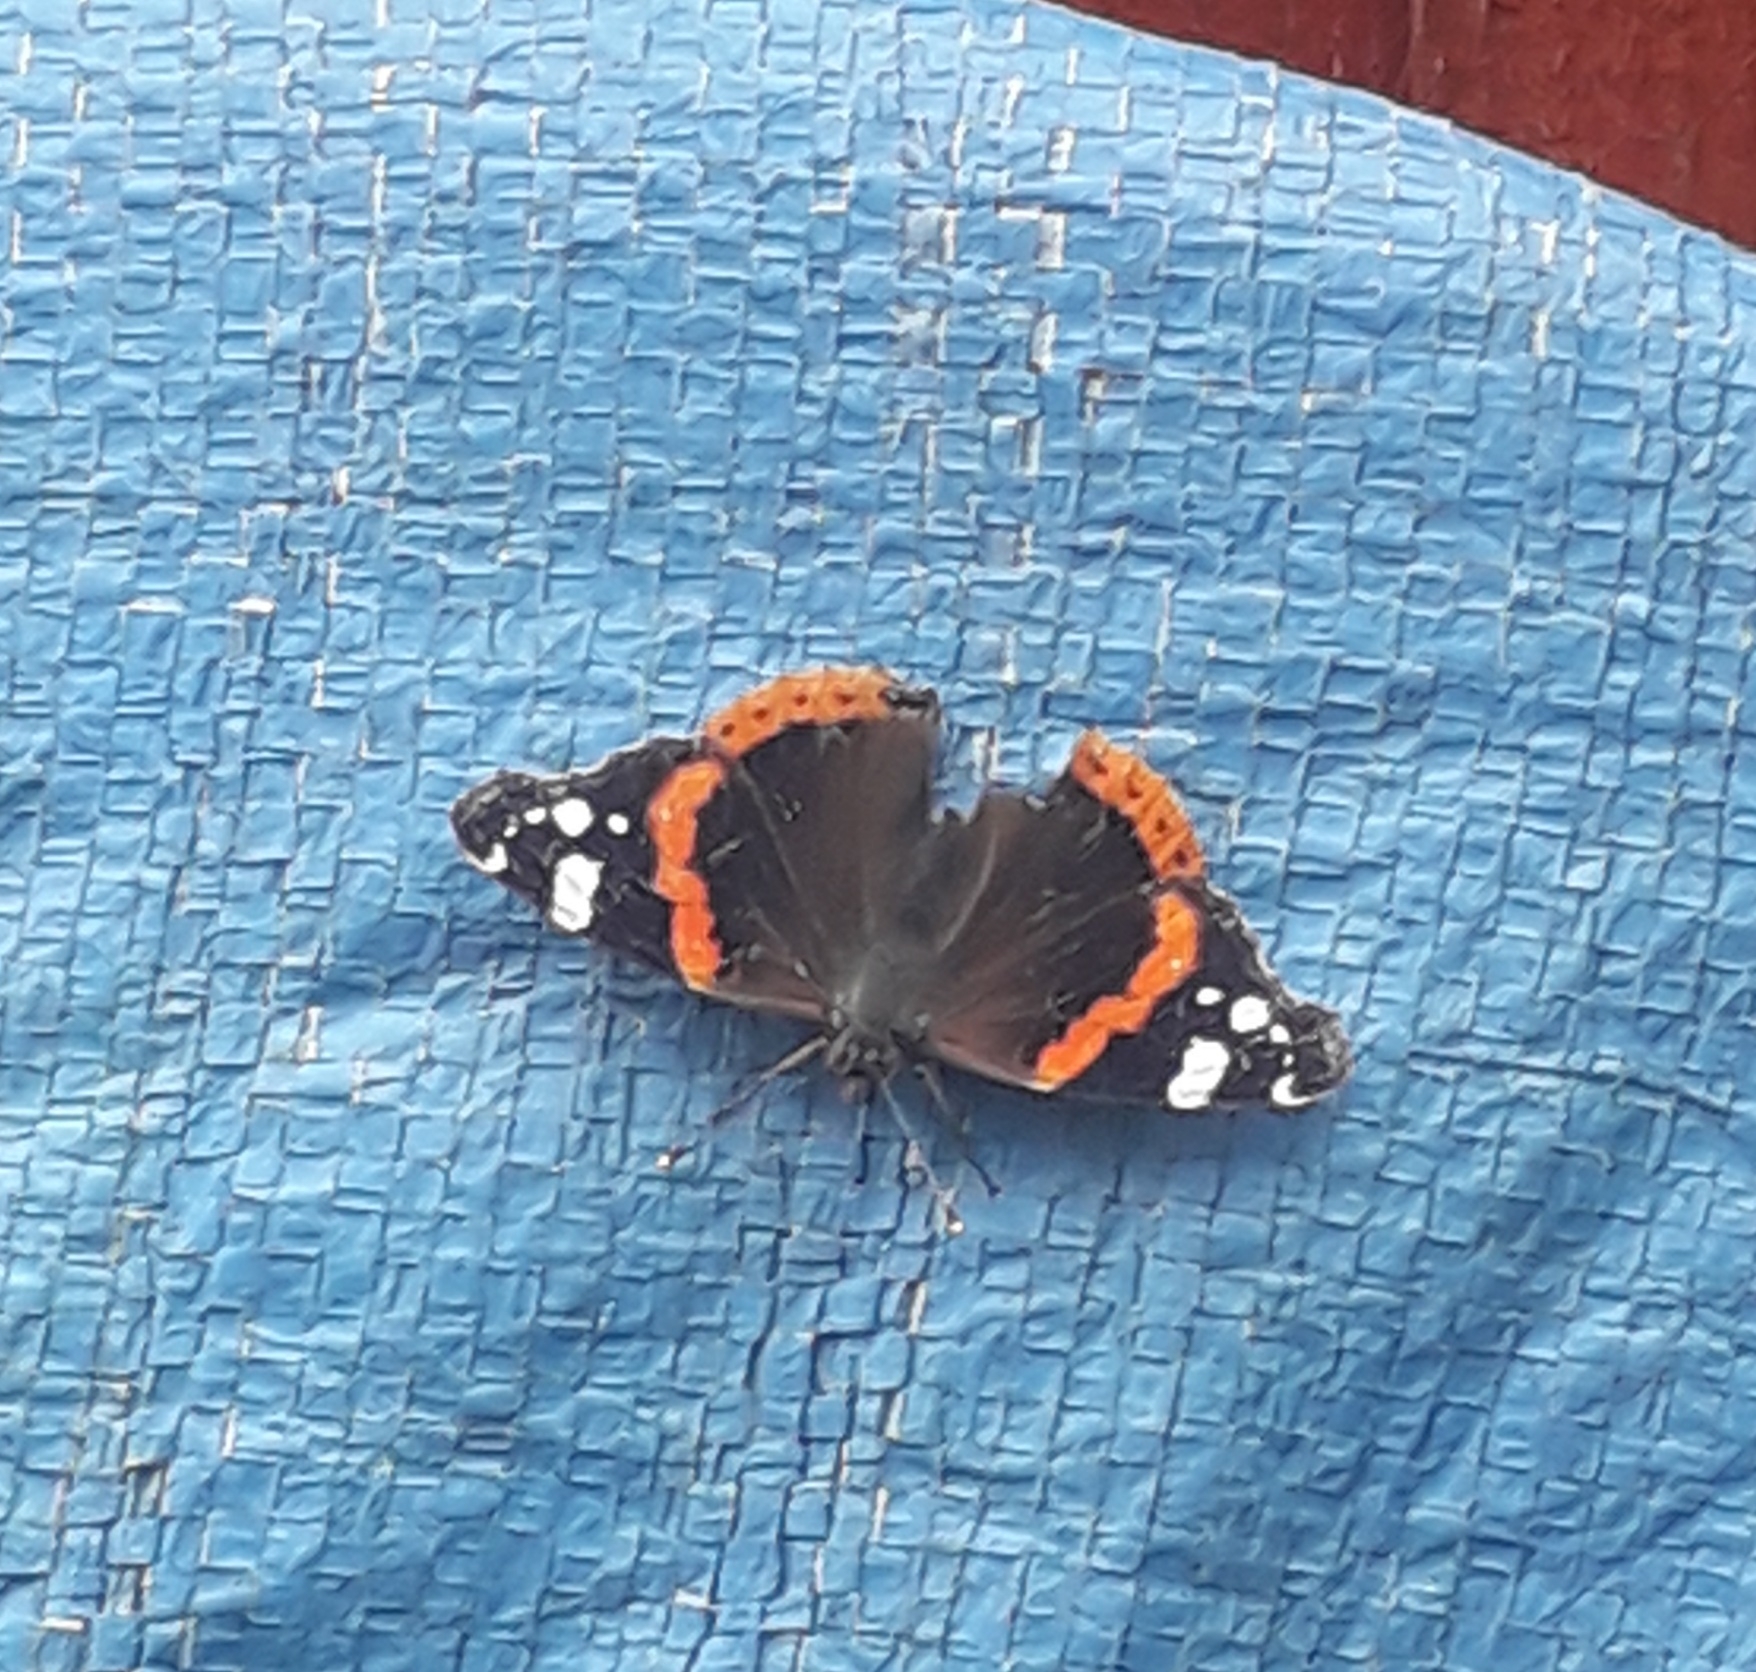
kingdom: Animalia
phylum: Arthropoda
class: Insecta
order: Lepidoptera
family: Nymphalidae
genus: Vanessa
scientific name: Vanessa atalanta
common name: Red admiral
